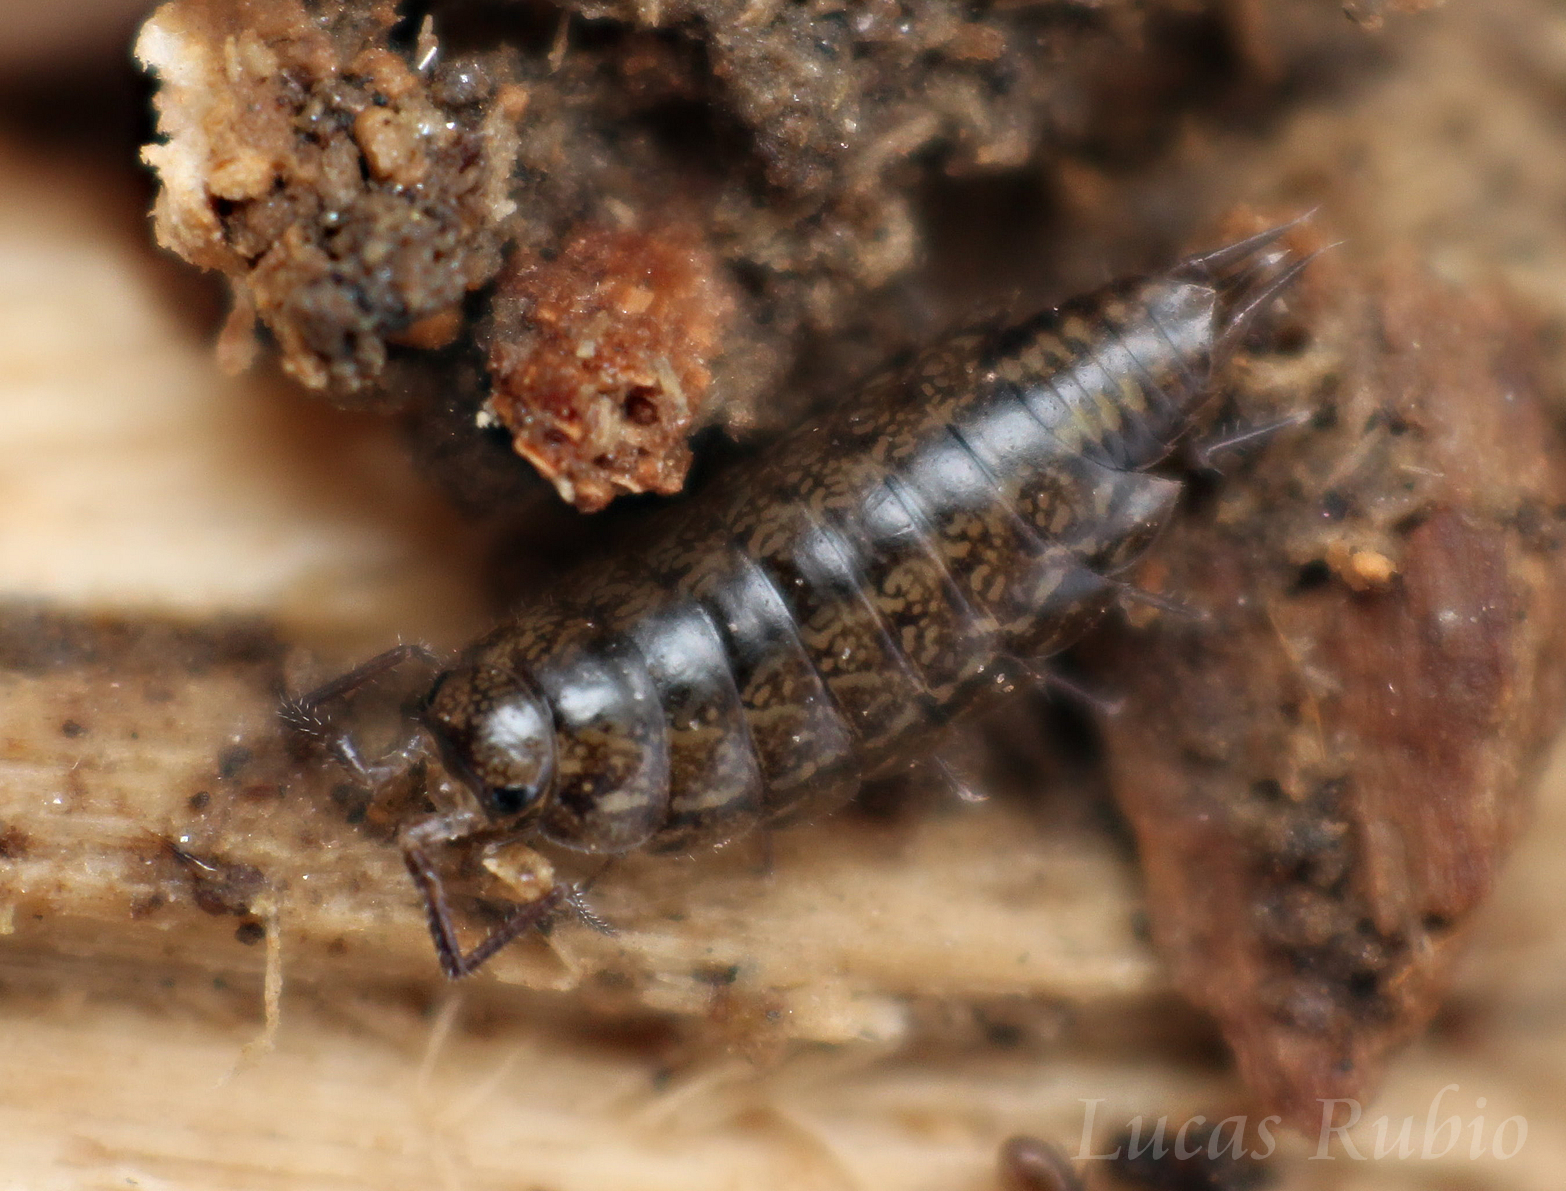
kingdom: Animalia
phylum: Arthropoda
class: Malacostraca
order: Isopoda
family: Balloniscidae
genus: Balloniscus
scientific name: Balloniscus sellowii
